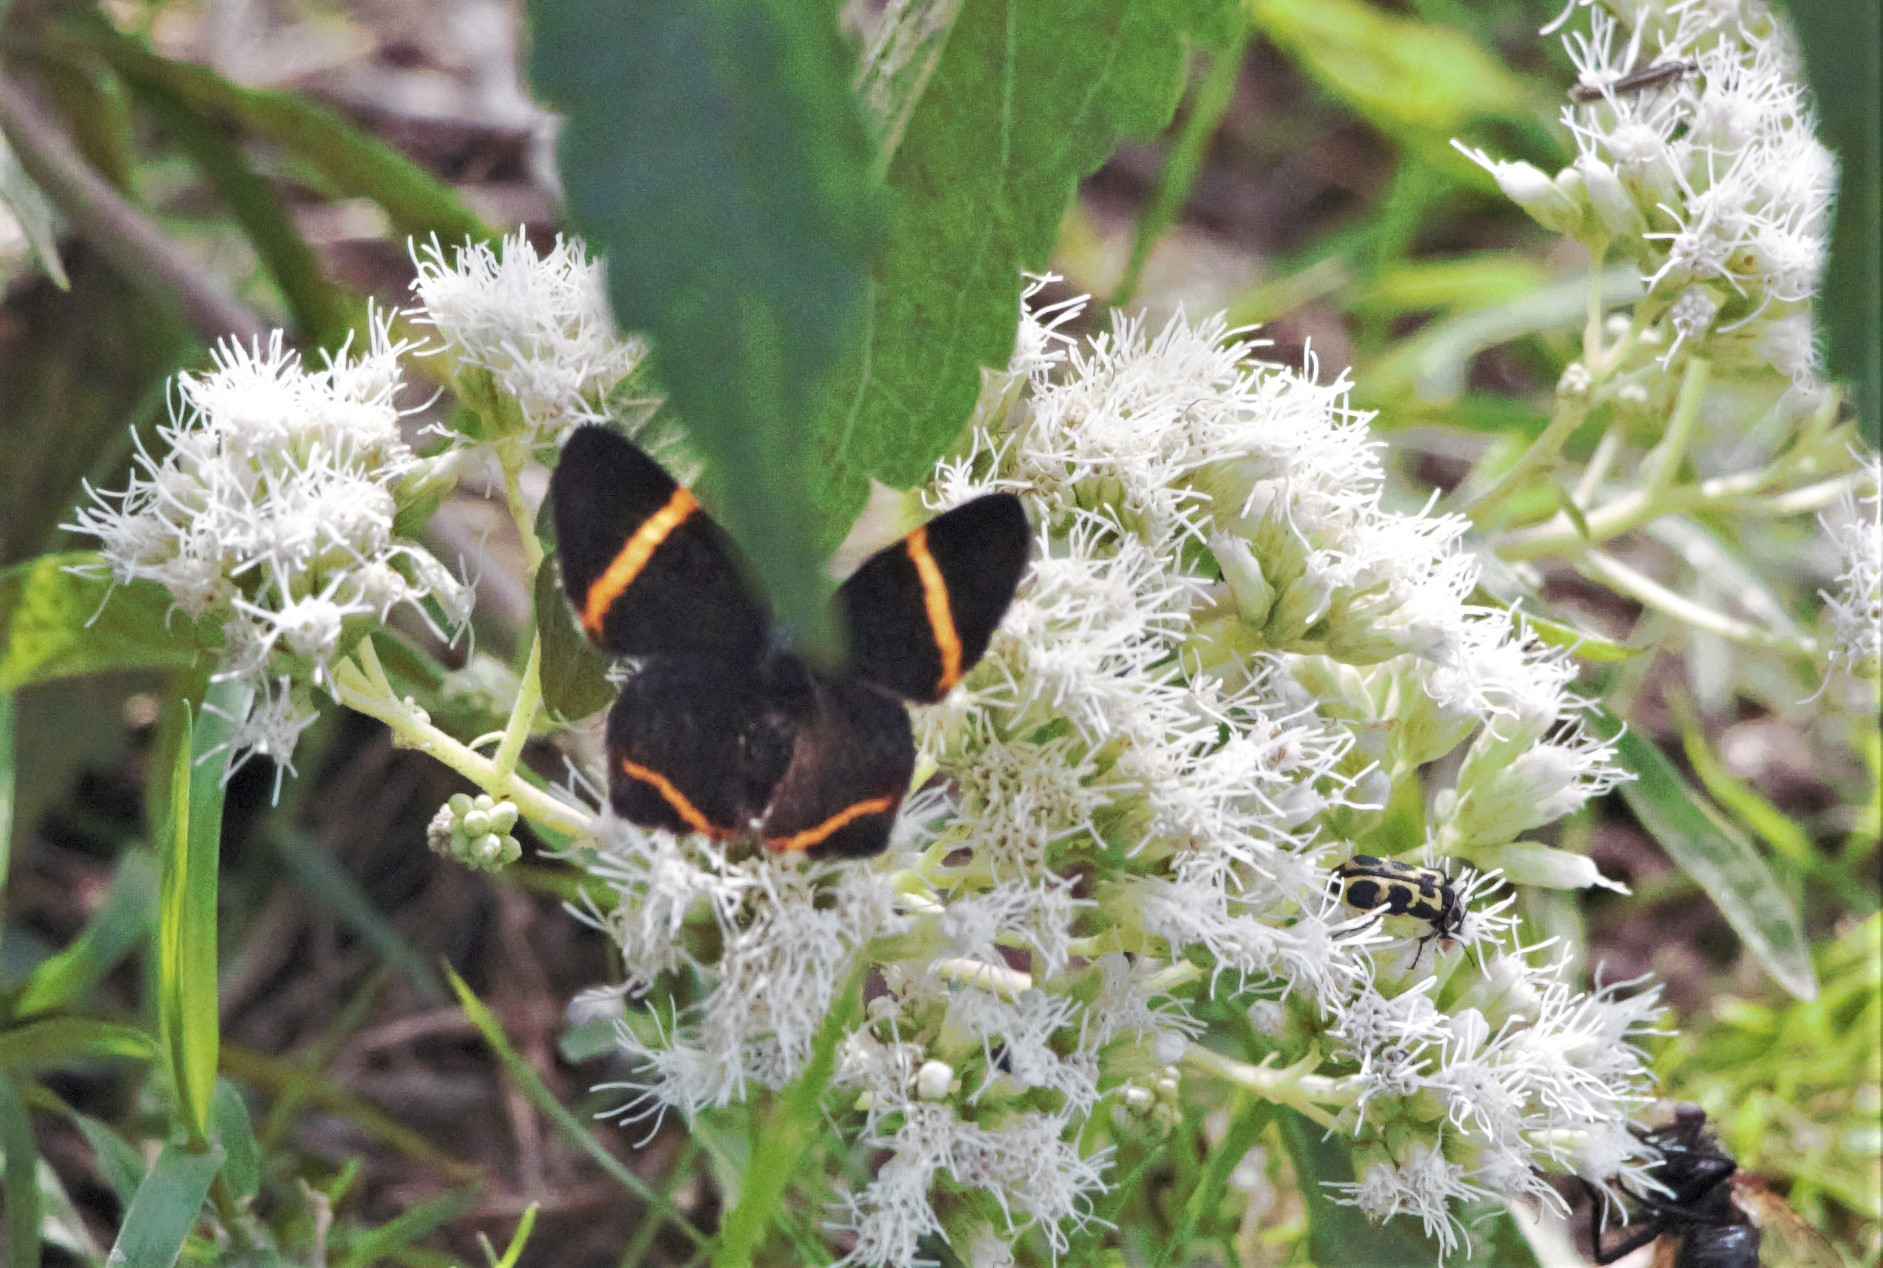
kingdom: Animalia
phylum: Arthropoda
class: Insecta
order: Lepidoptera
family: Riodinidae
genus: Riodina
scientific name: Riodina lysippoides
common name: Little dancer metalmark
